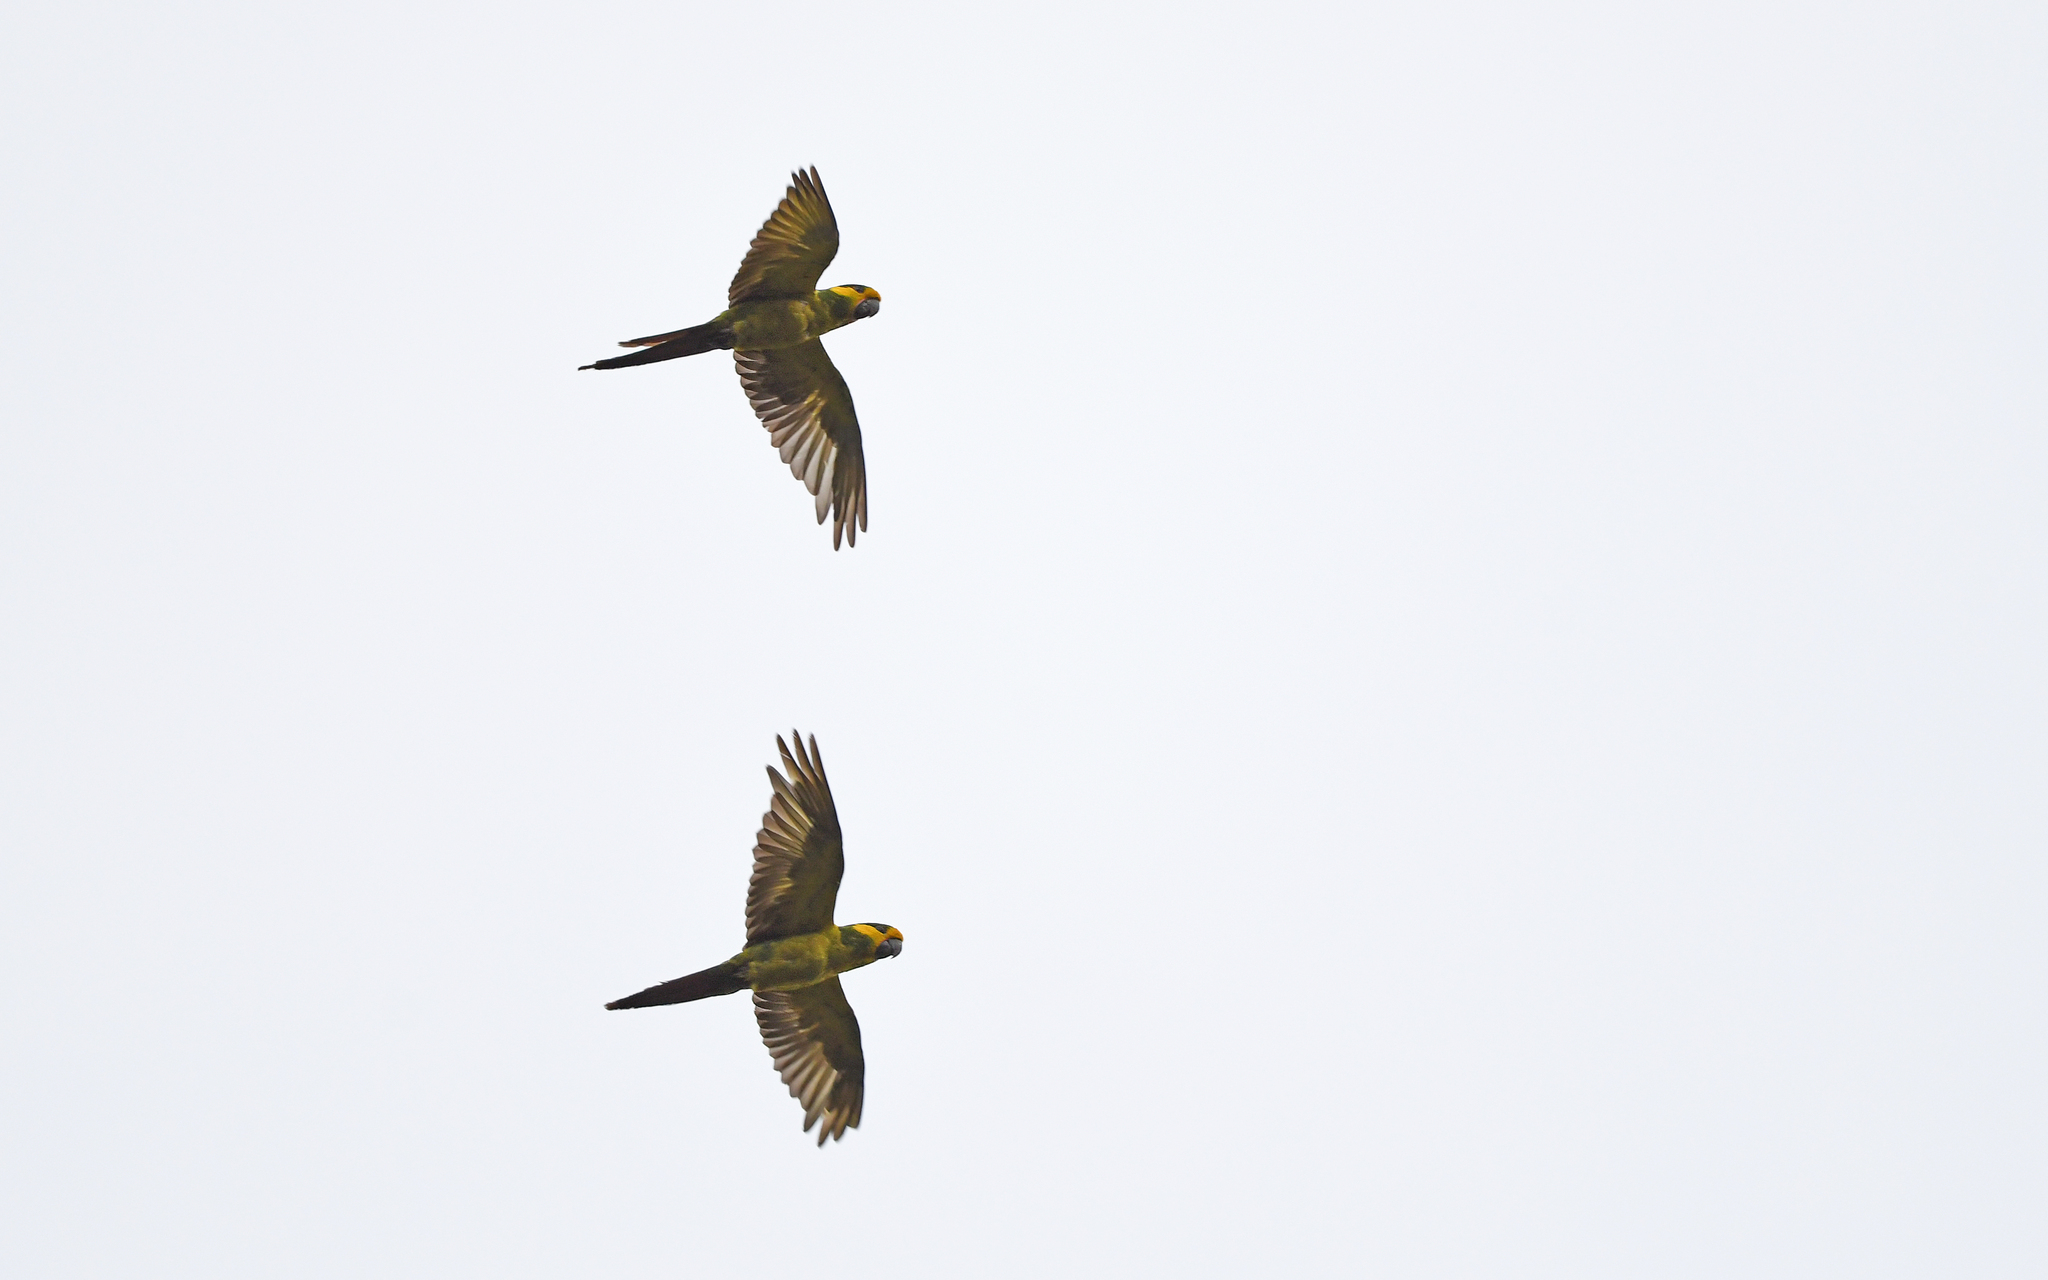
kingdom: Animalia
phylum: Chordata
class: Aves
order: Psittaciformes
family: Psittacidae
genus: Ognorhynchus
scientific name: Ognorhynchus icterotis
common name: Yellow-eared parrot
